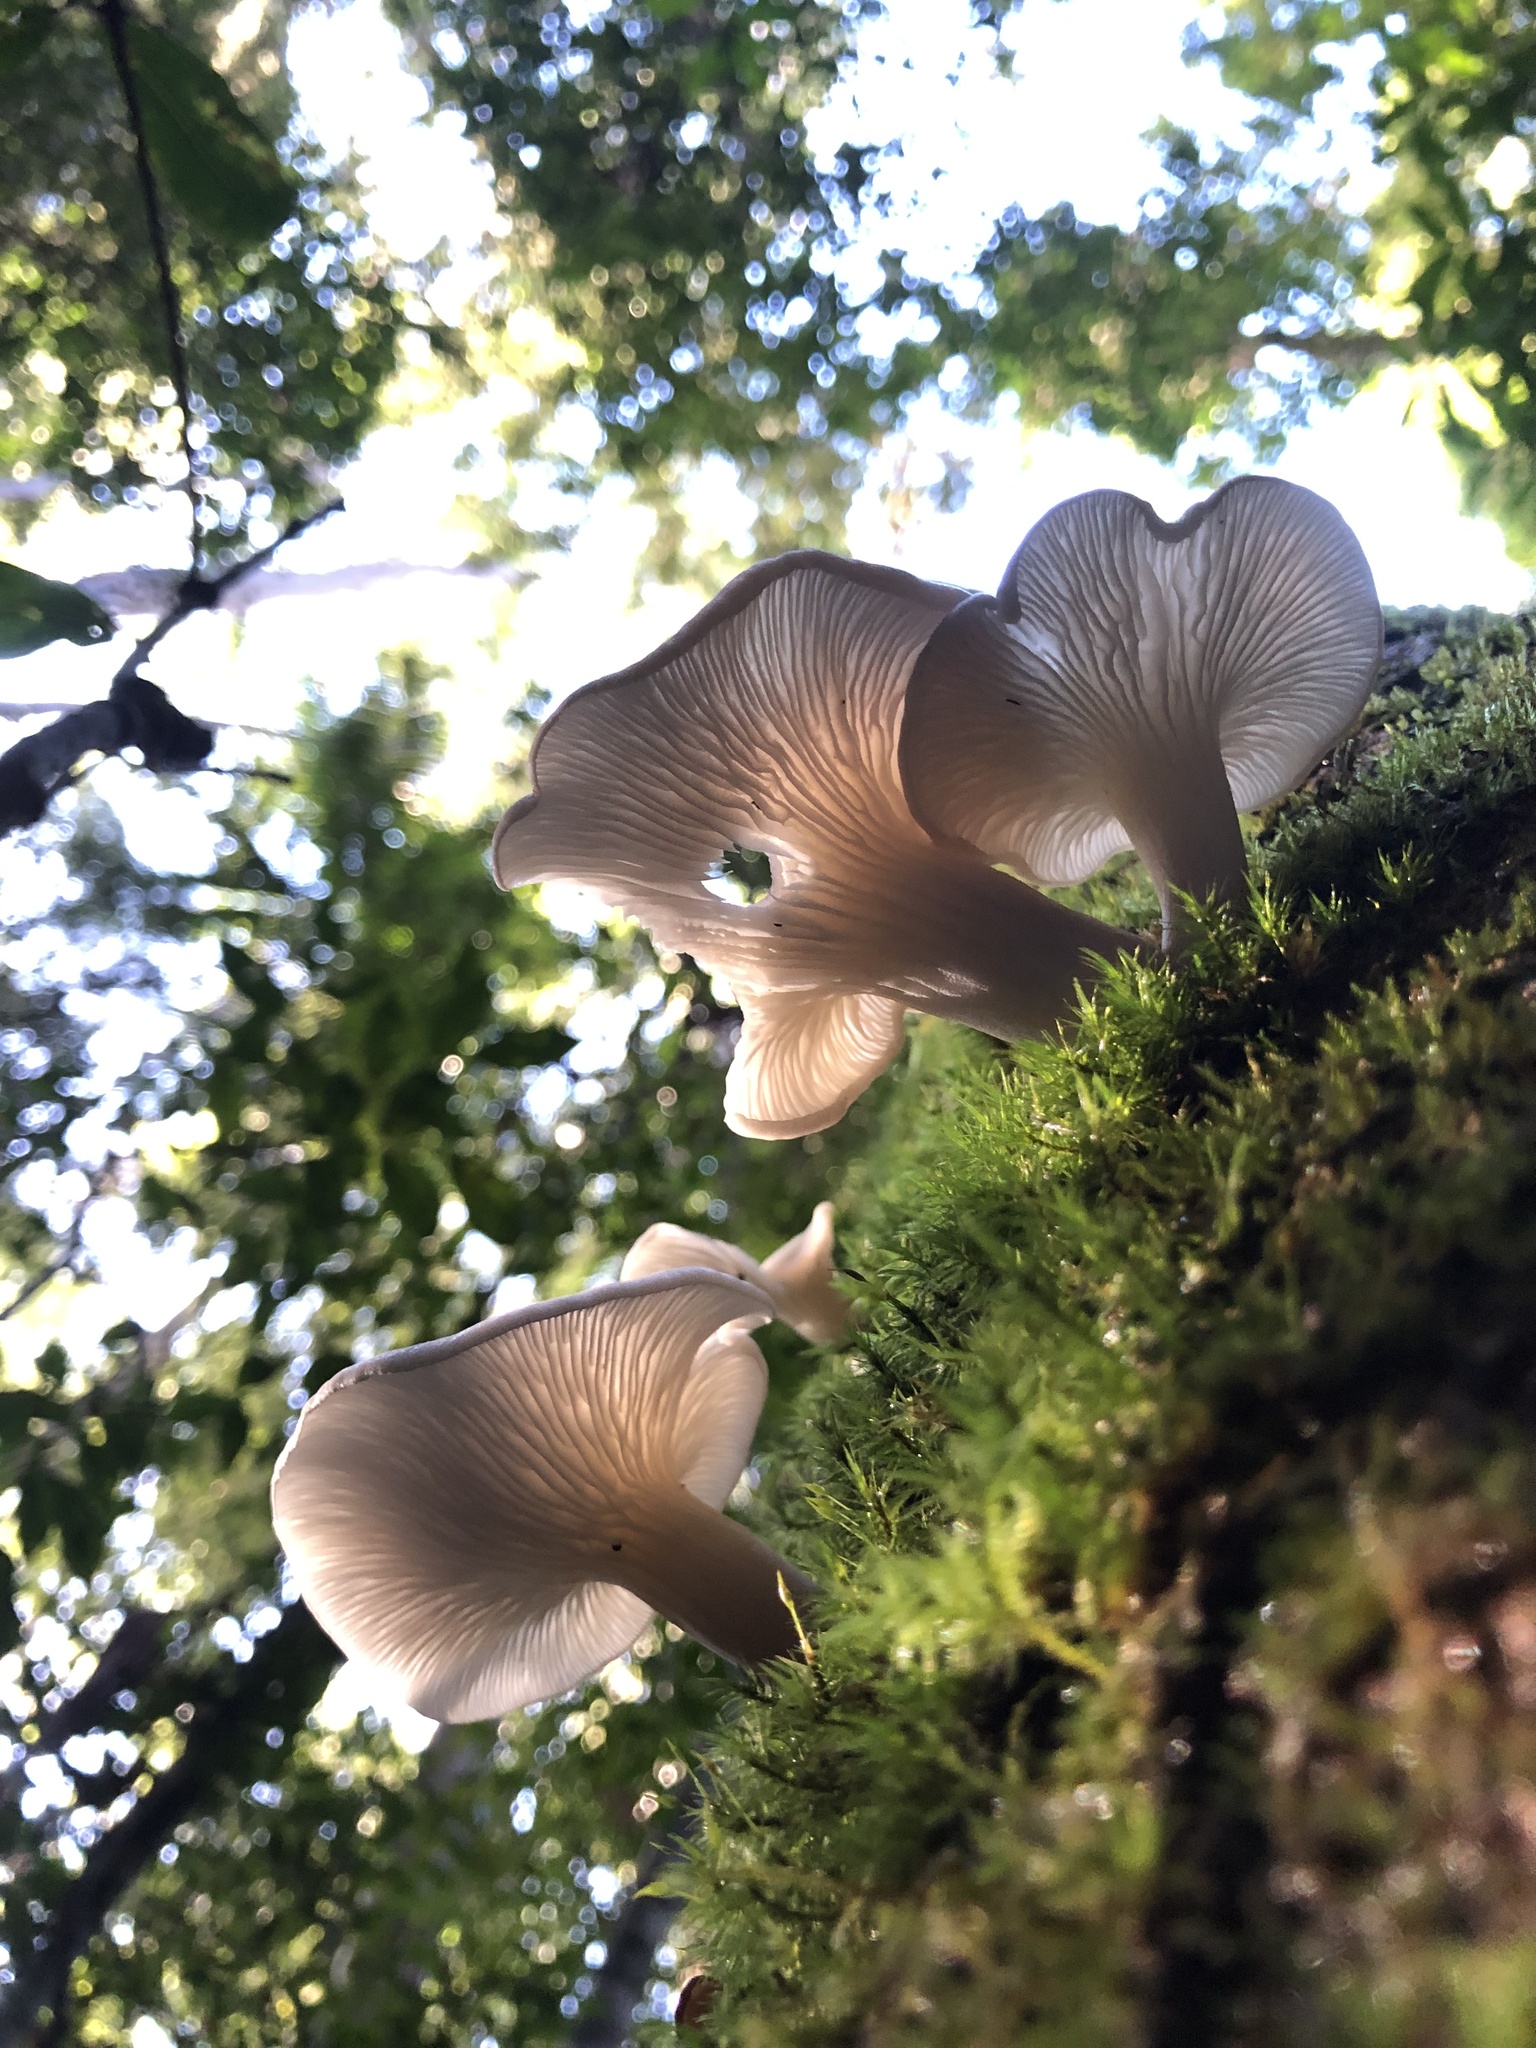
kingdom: Fungi
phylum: Basidiomycota
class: Agaricomycetes
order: Agaricales
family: Omphalotaceae
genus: Omphalotus
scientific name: Omphalotus nidiformis
